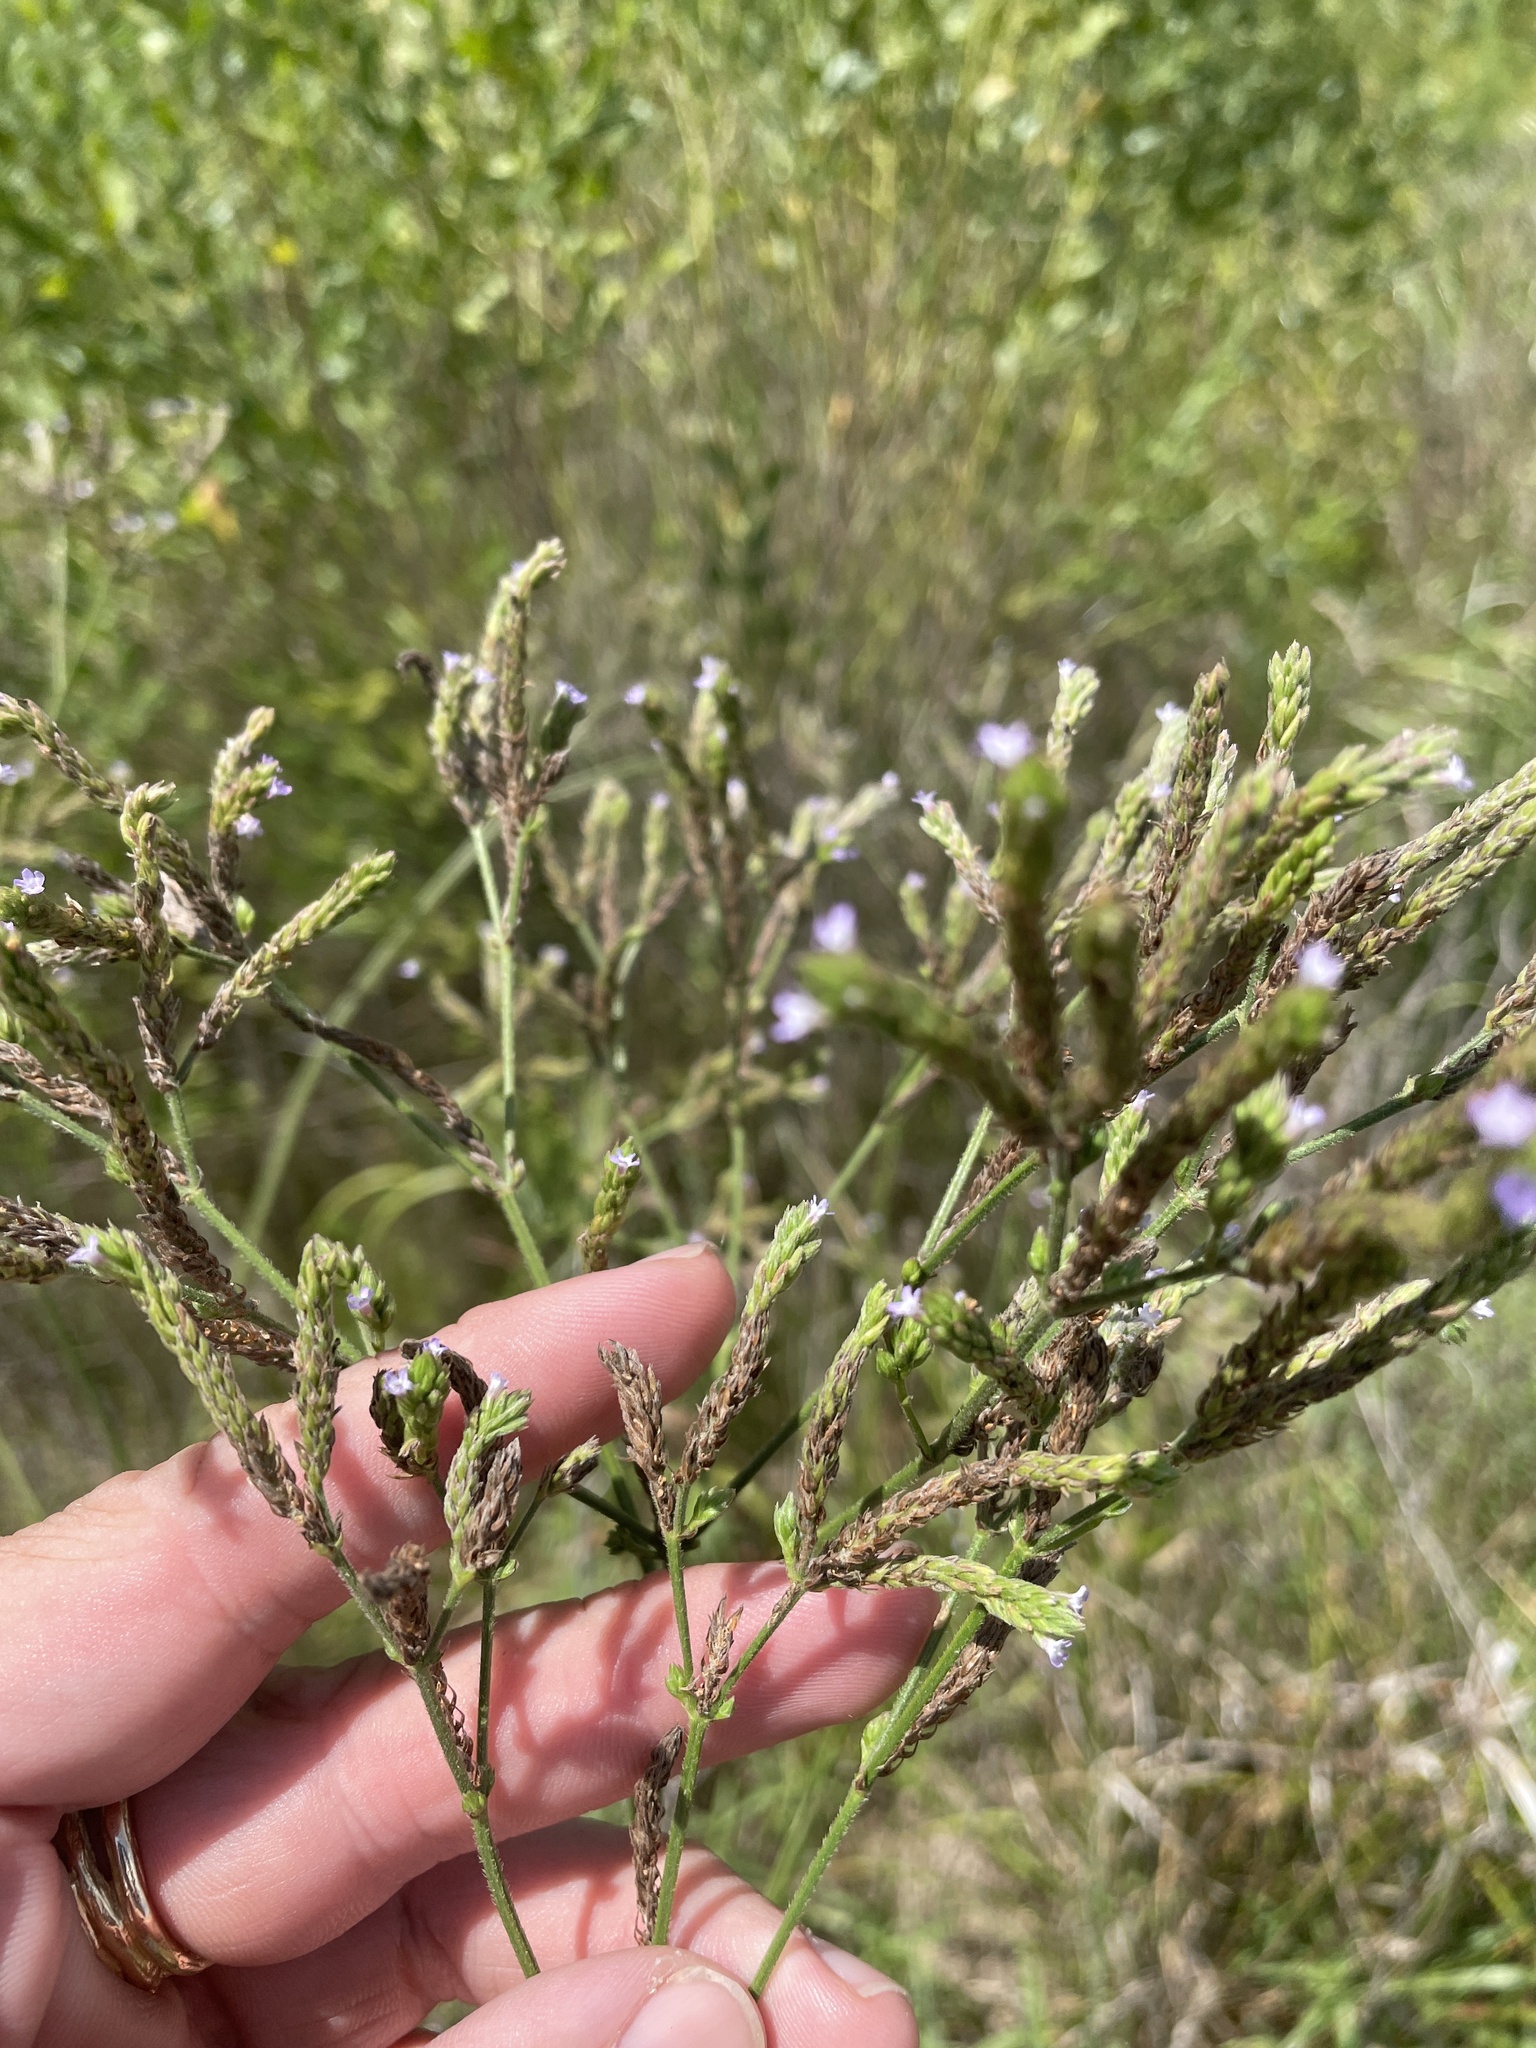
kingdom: Plantae
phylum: Tracheophyta
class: Magnoliopsida
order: Lamiales
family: Verbenaceae
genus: Verbena
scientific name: Verbena brasiliensis
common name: Brazilian vervain
